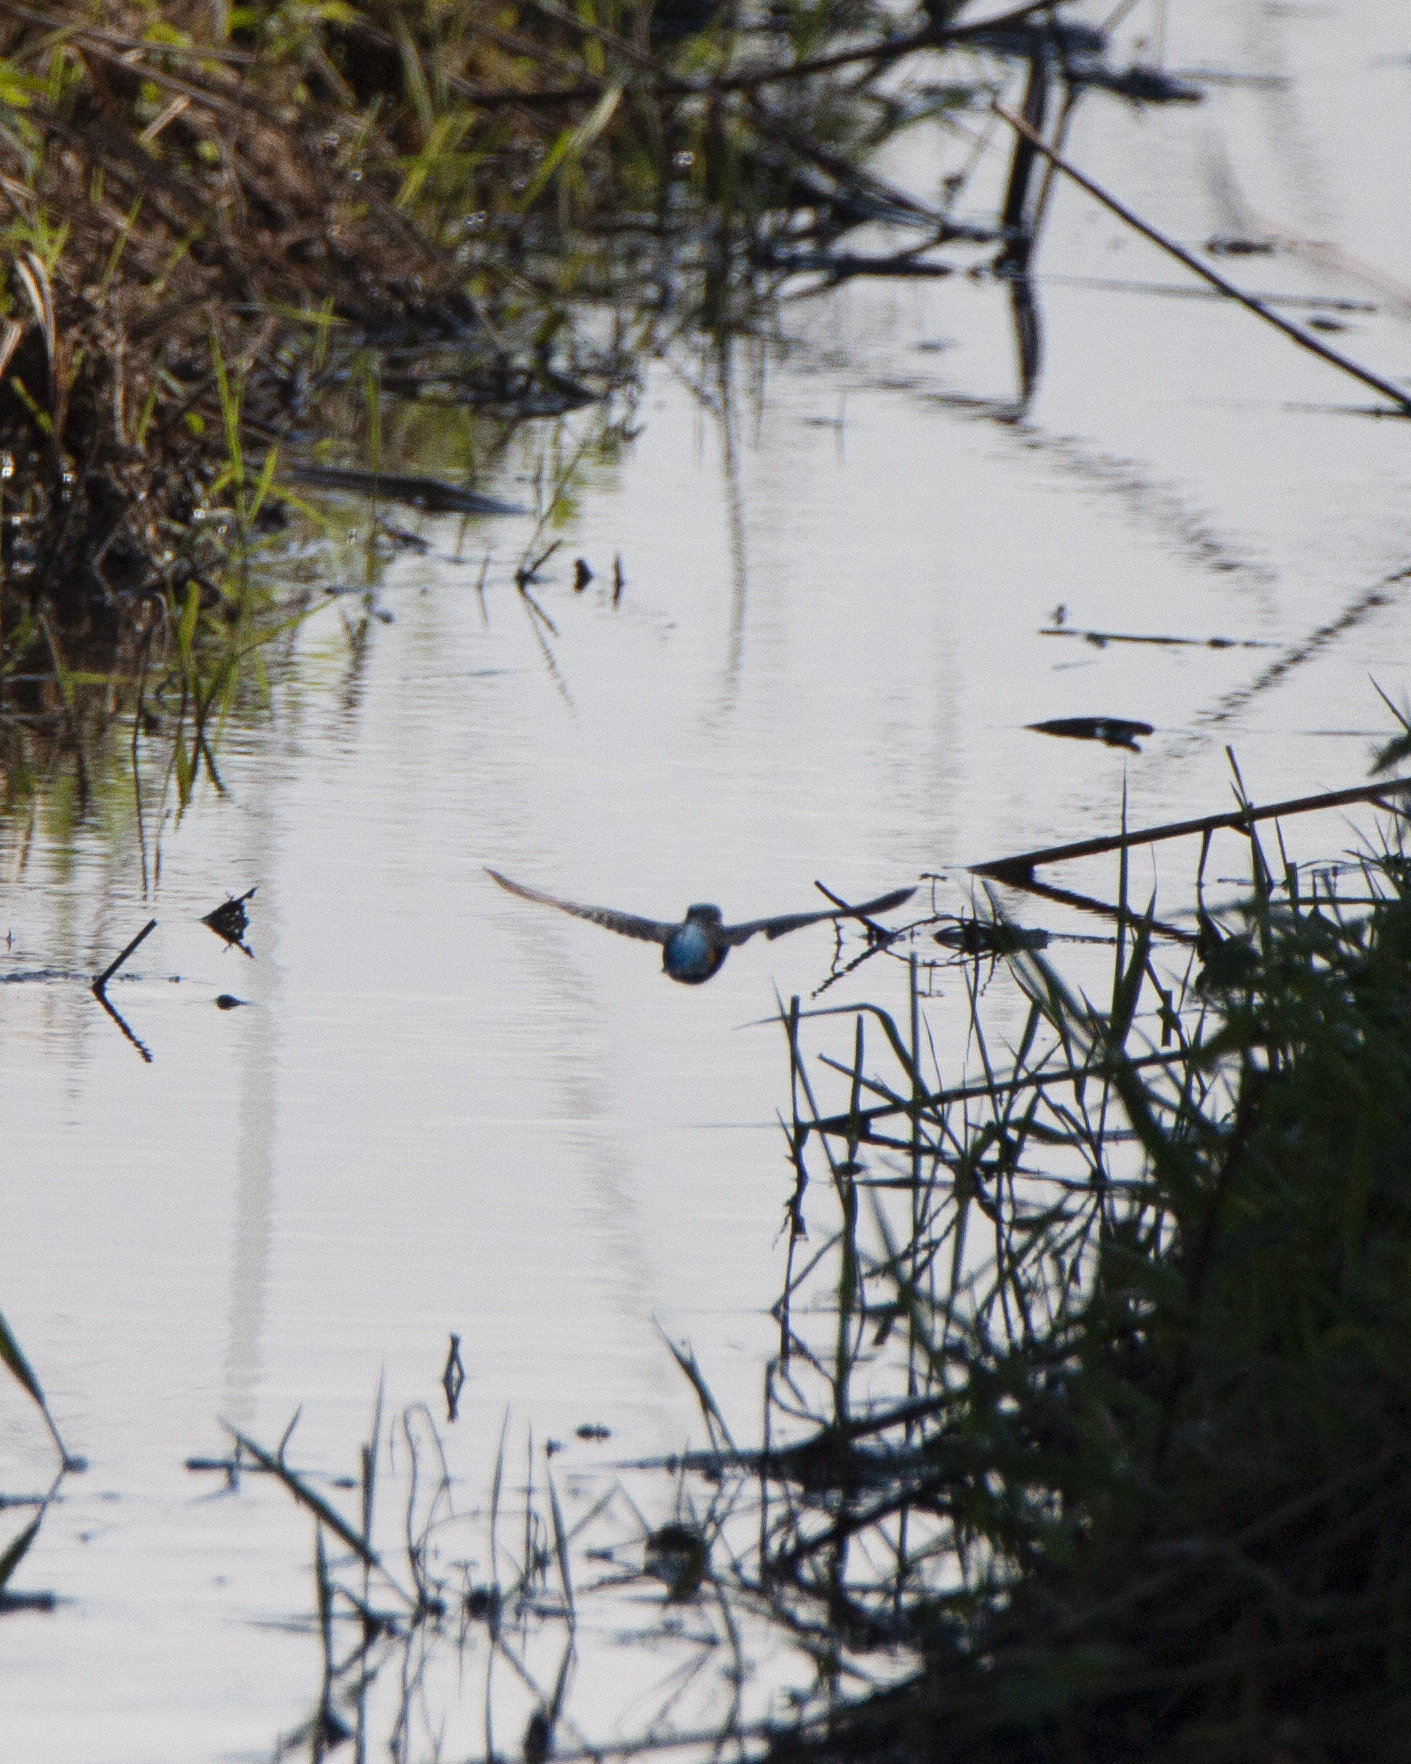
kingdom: Animalia
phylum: Chordata
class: Aves
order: Coraciiformes
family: Alcedinidae
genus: Alcedo
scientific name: Alcedo atthis
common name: Common kingfisher
